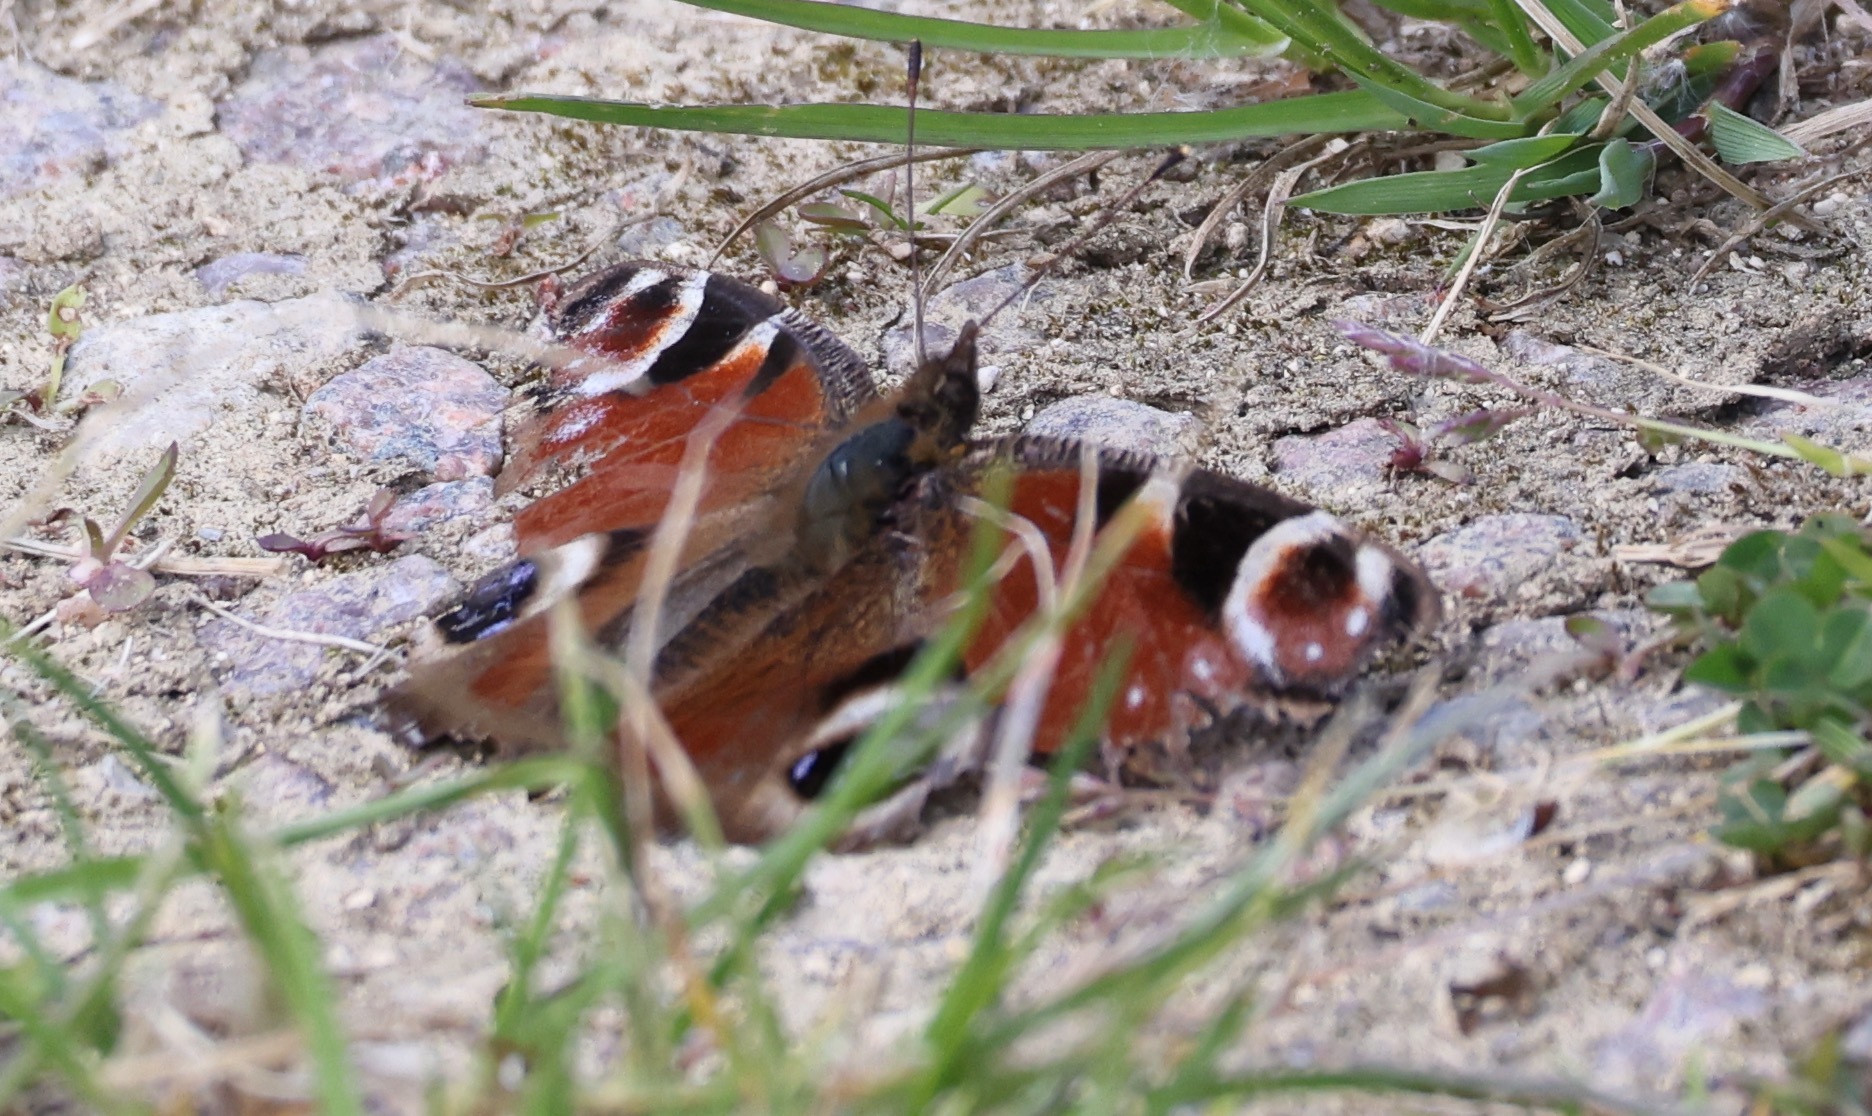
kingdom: Animalia
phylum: Arthropoda
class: Insecta
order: Lepidoptera
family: Nymphalidae
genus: Aglais
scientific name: Aglais io
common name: Peacock
